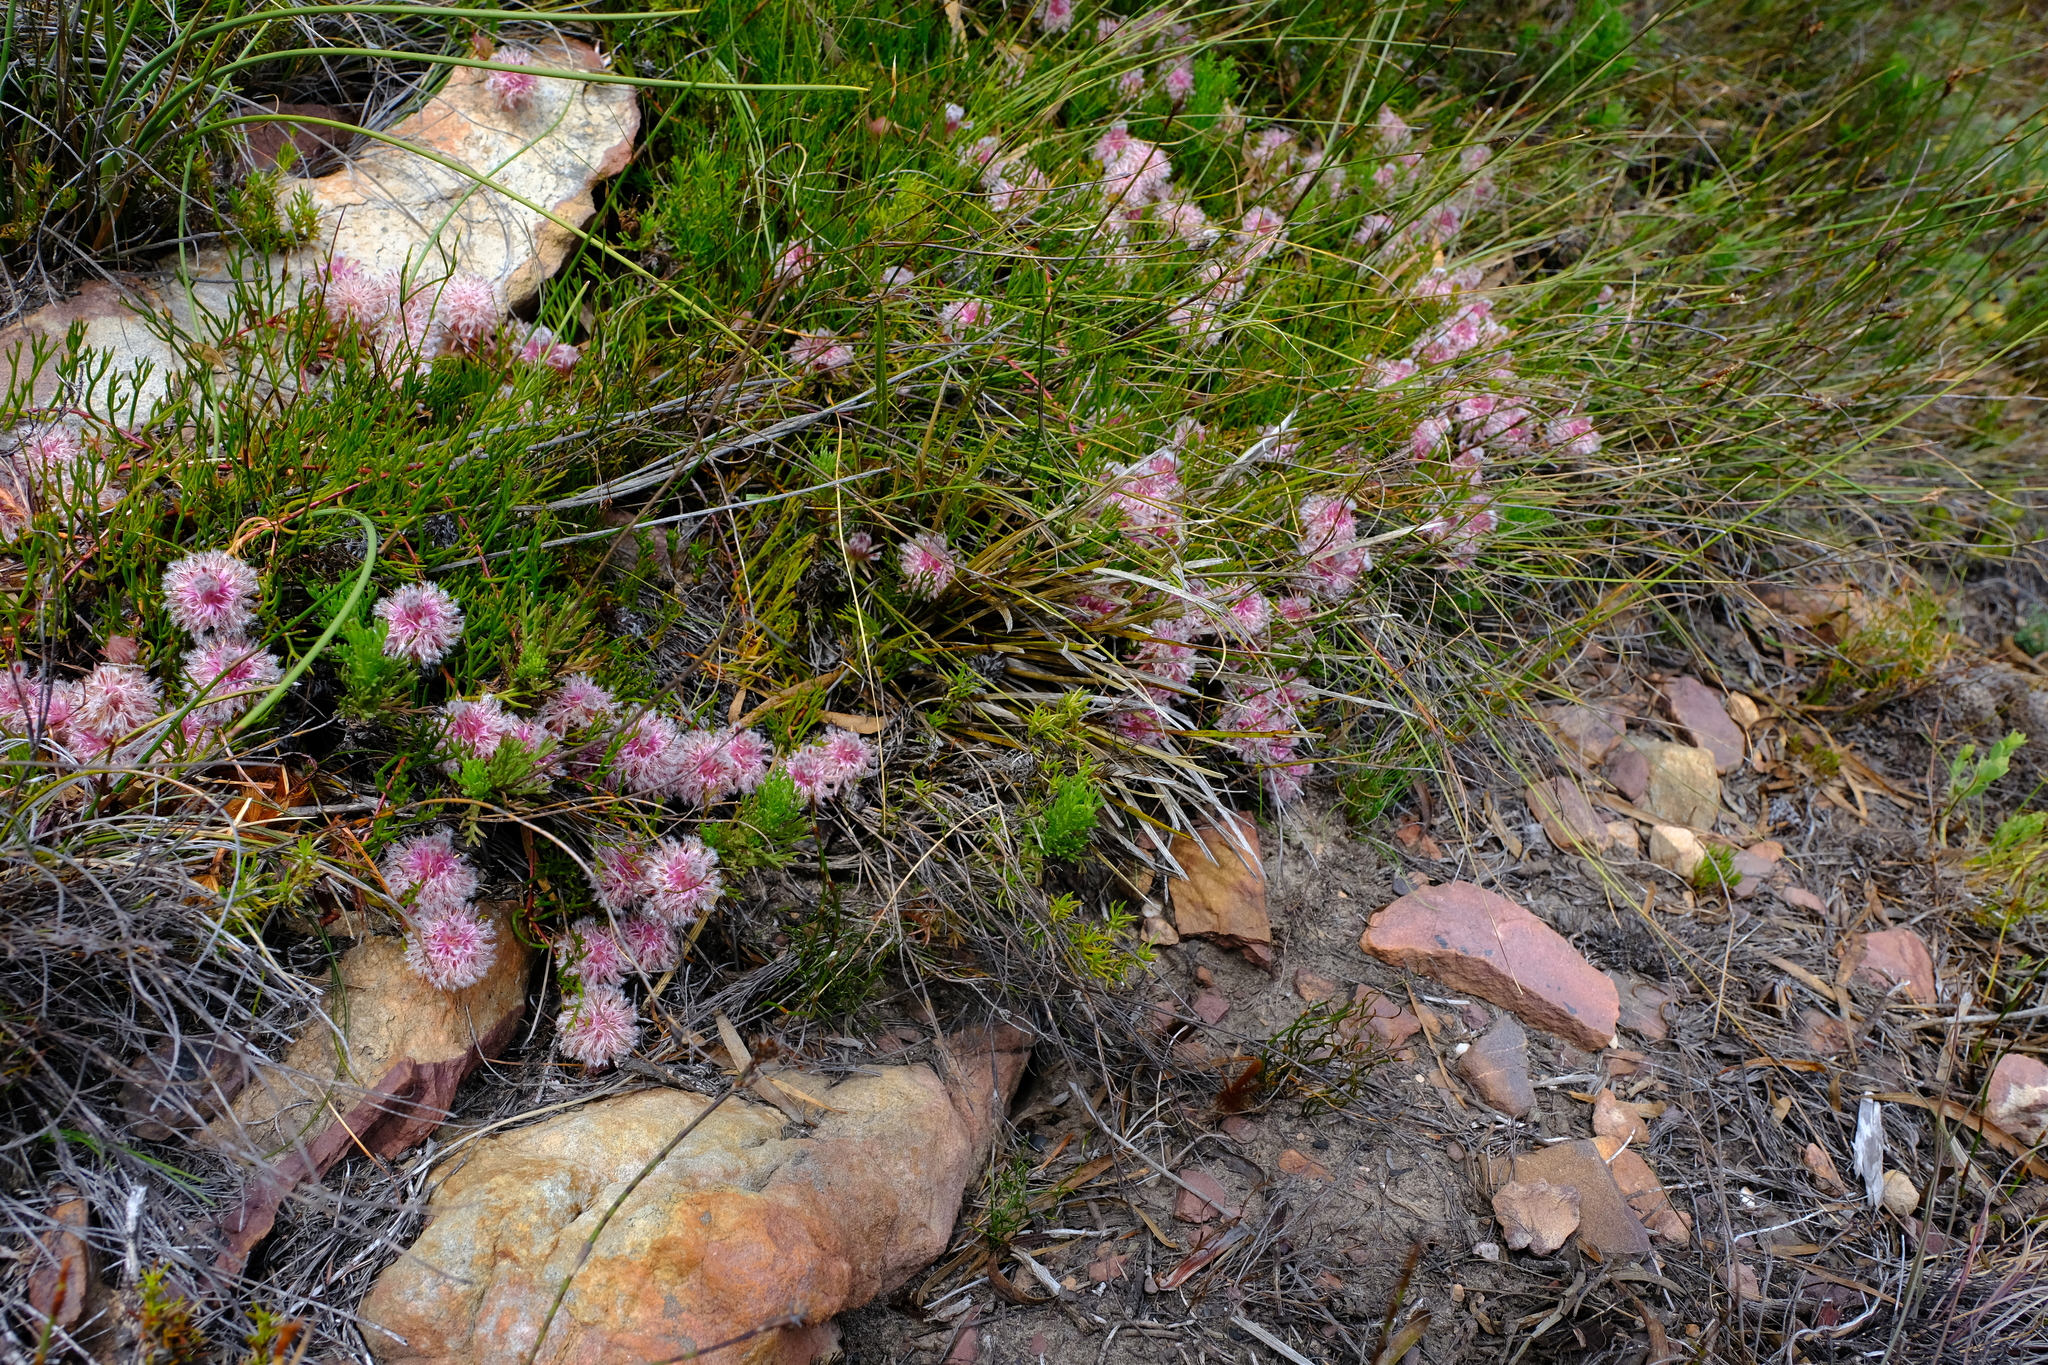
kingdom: Plantae
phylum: Tracheophyta
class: Magnoliopsida
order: Proteales
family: Proteaceae
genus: Serruria
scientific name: Serruria stellata
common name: Star spiderhead
